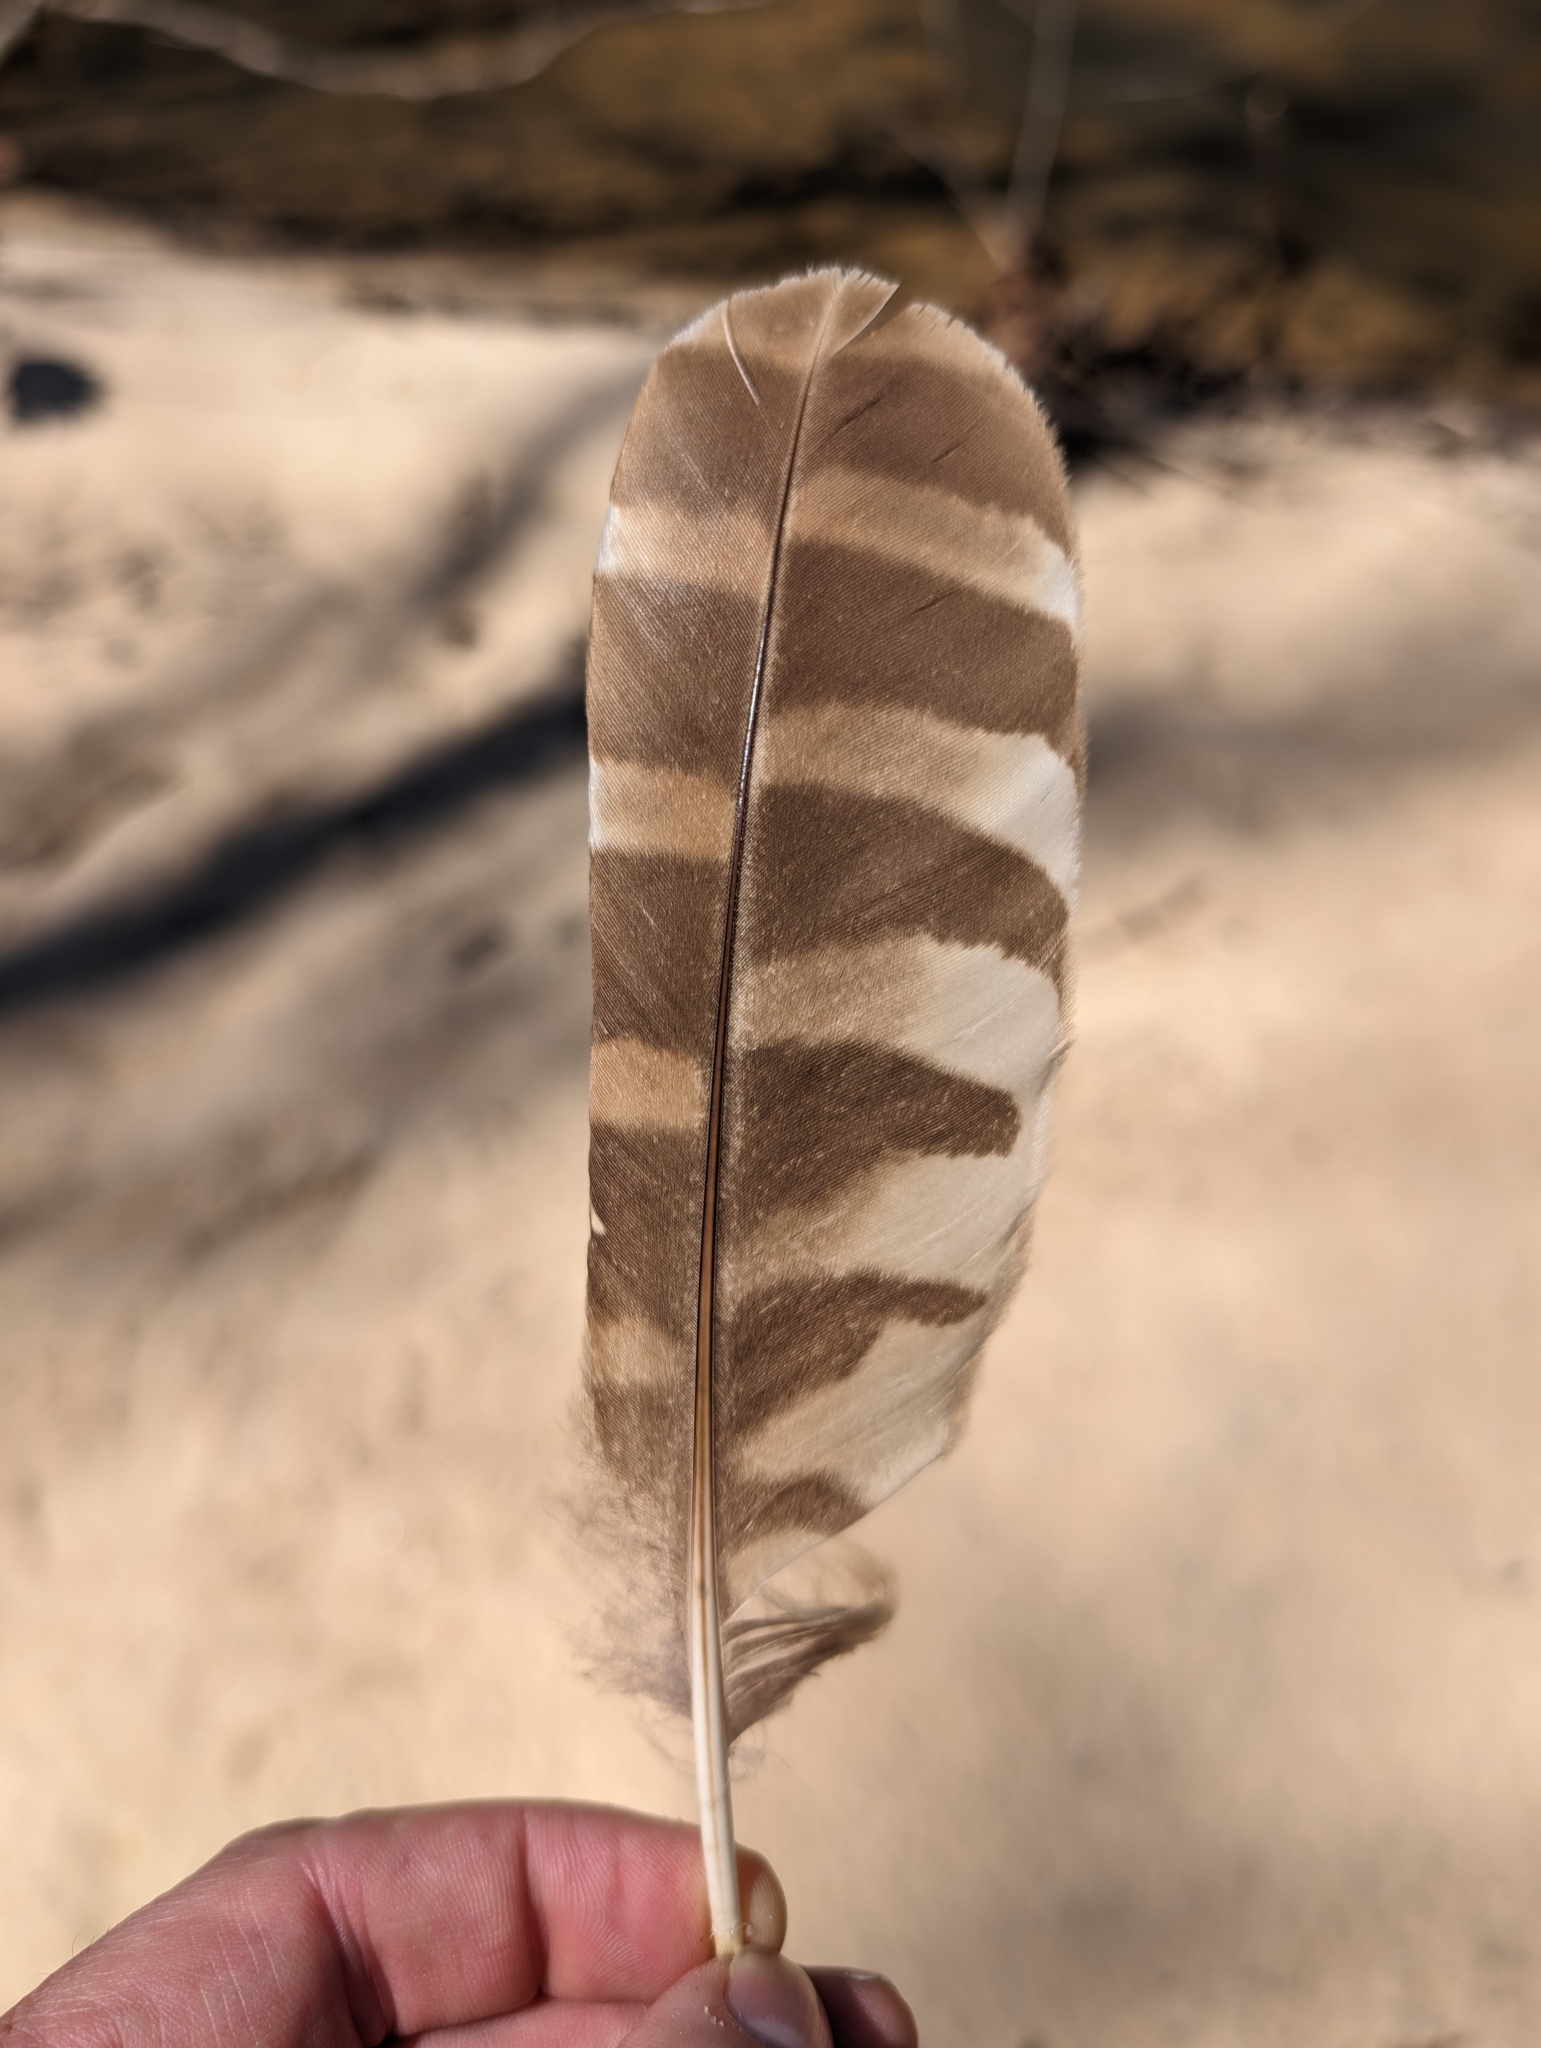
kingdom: Animalia
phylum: Chordata
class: Aves
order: Strigiformes
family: Strigidae
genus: Strix
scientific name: Strix varia
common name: Barred owl
